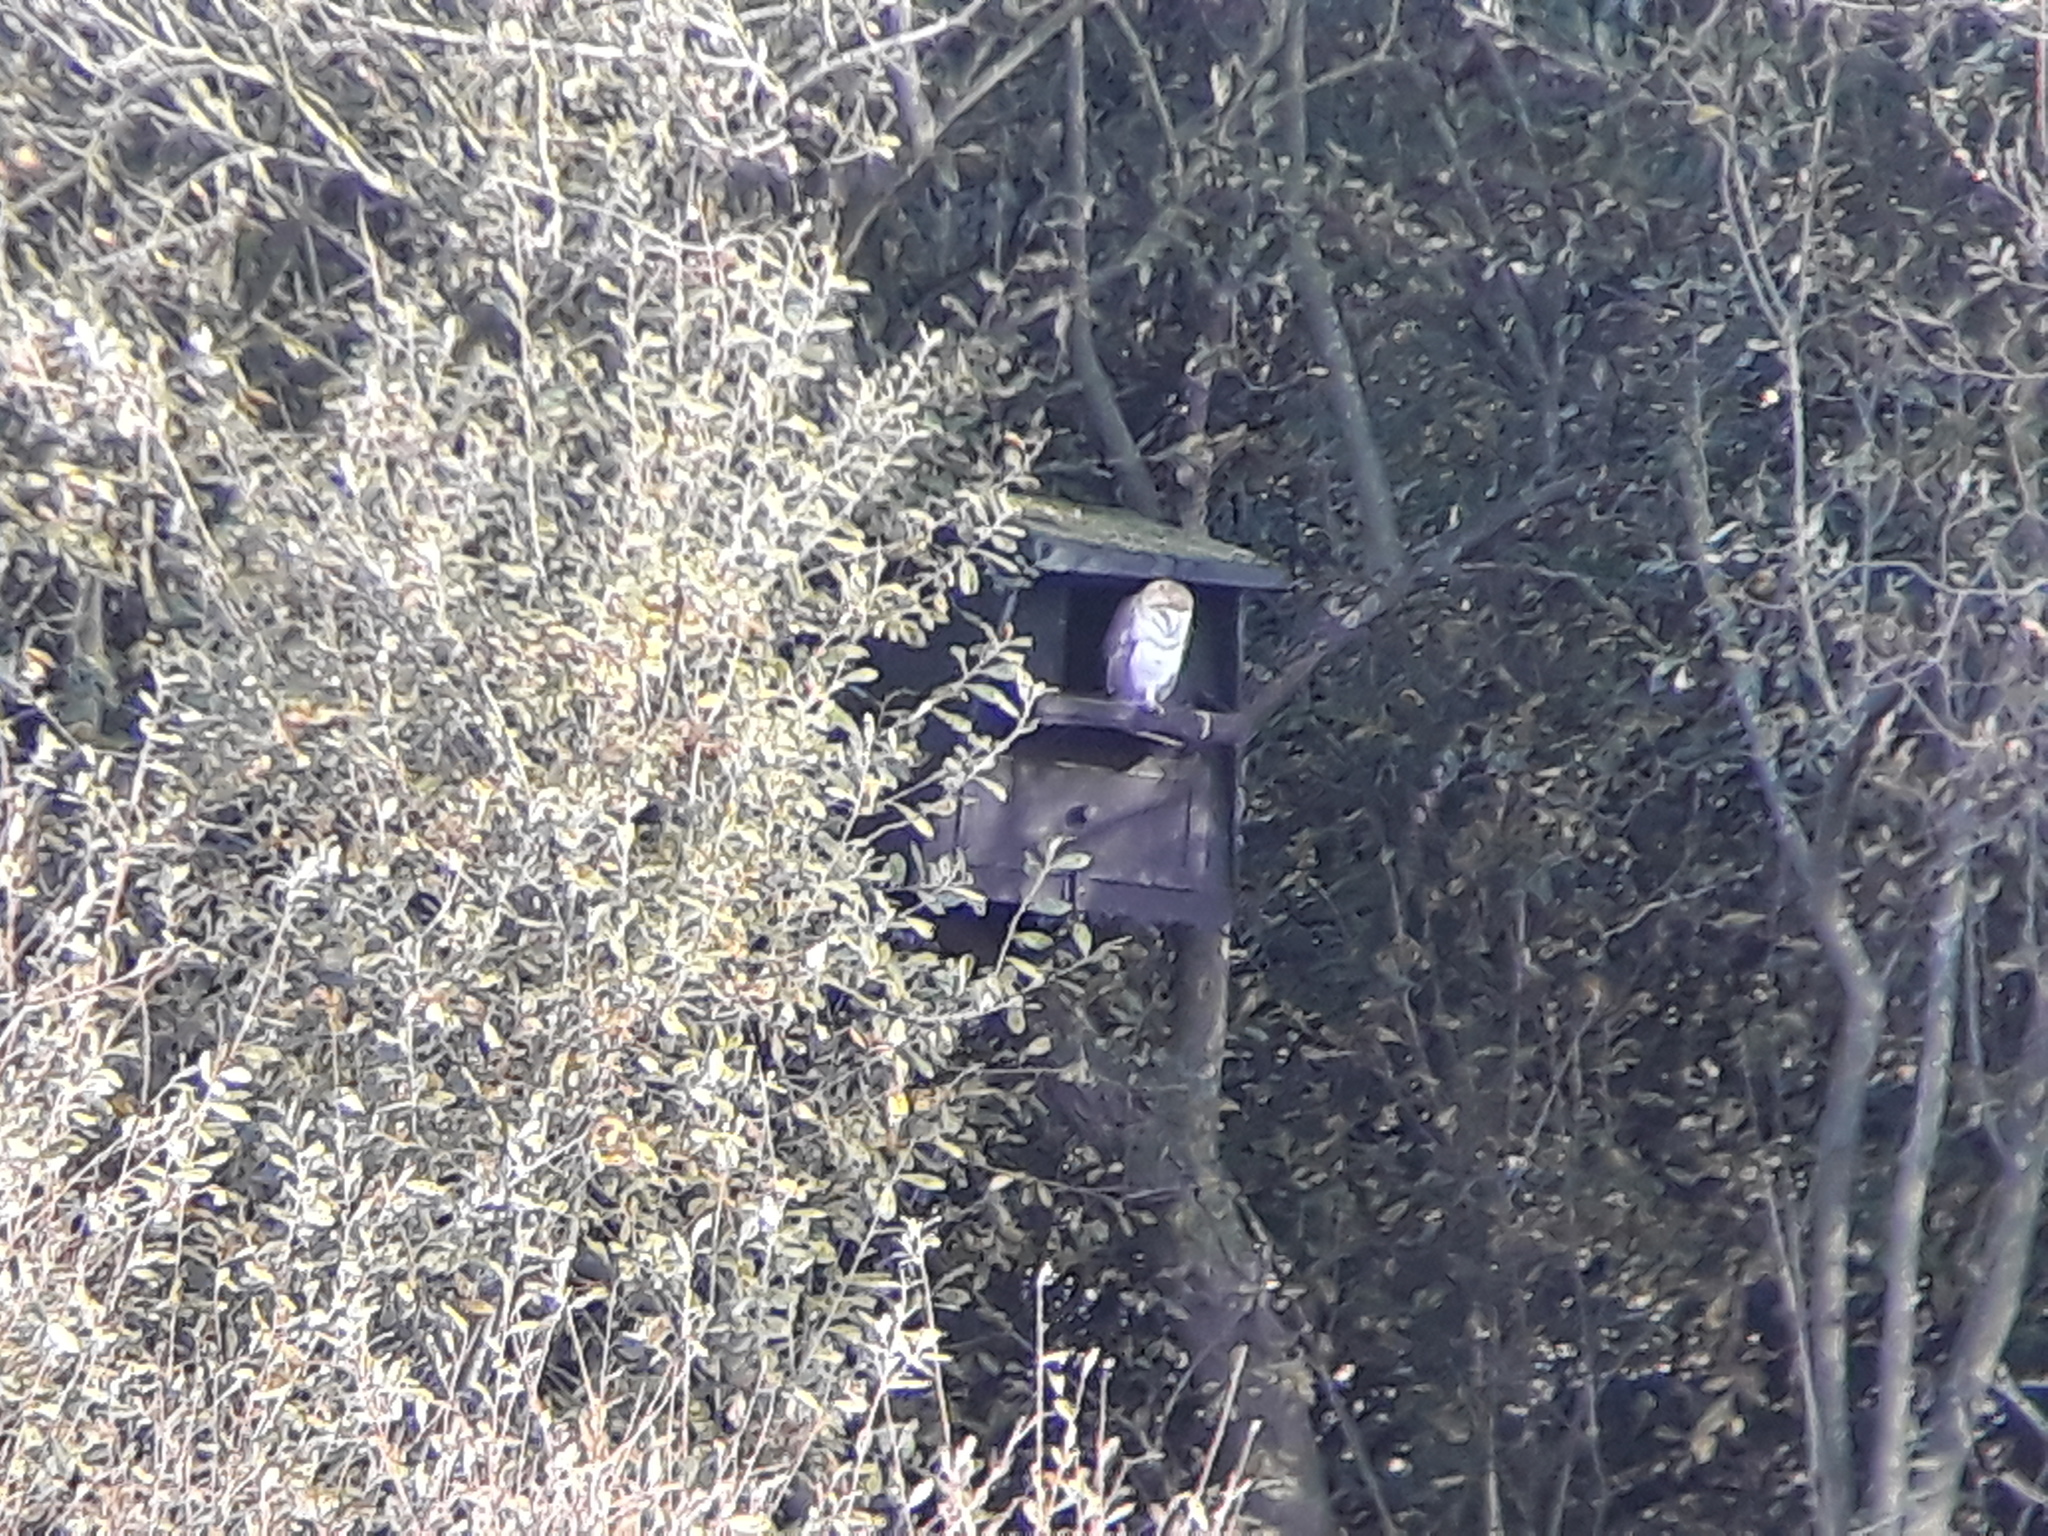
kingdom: Animalia
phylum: Chordata
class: Aves
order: Strigiformes
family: Tytonidae
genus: Tyto
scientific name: Tyto alba
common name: Barn owl
